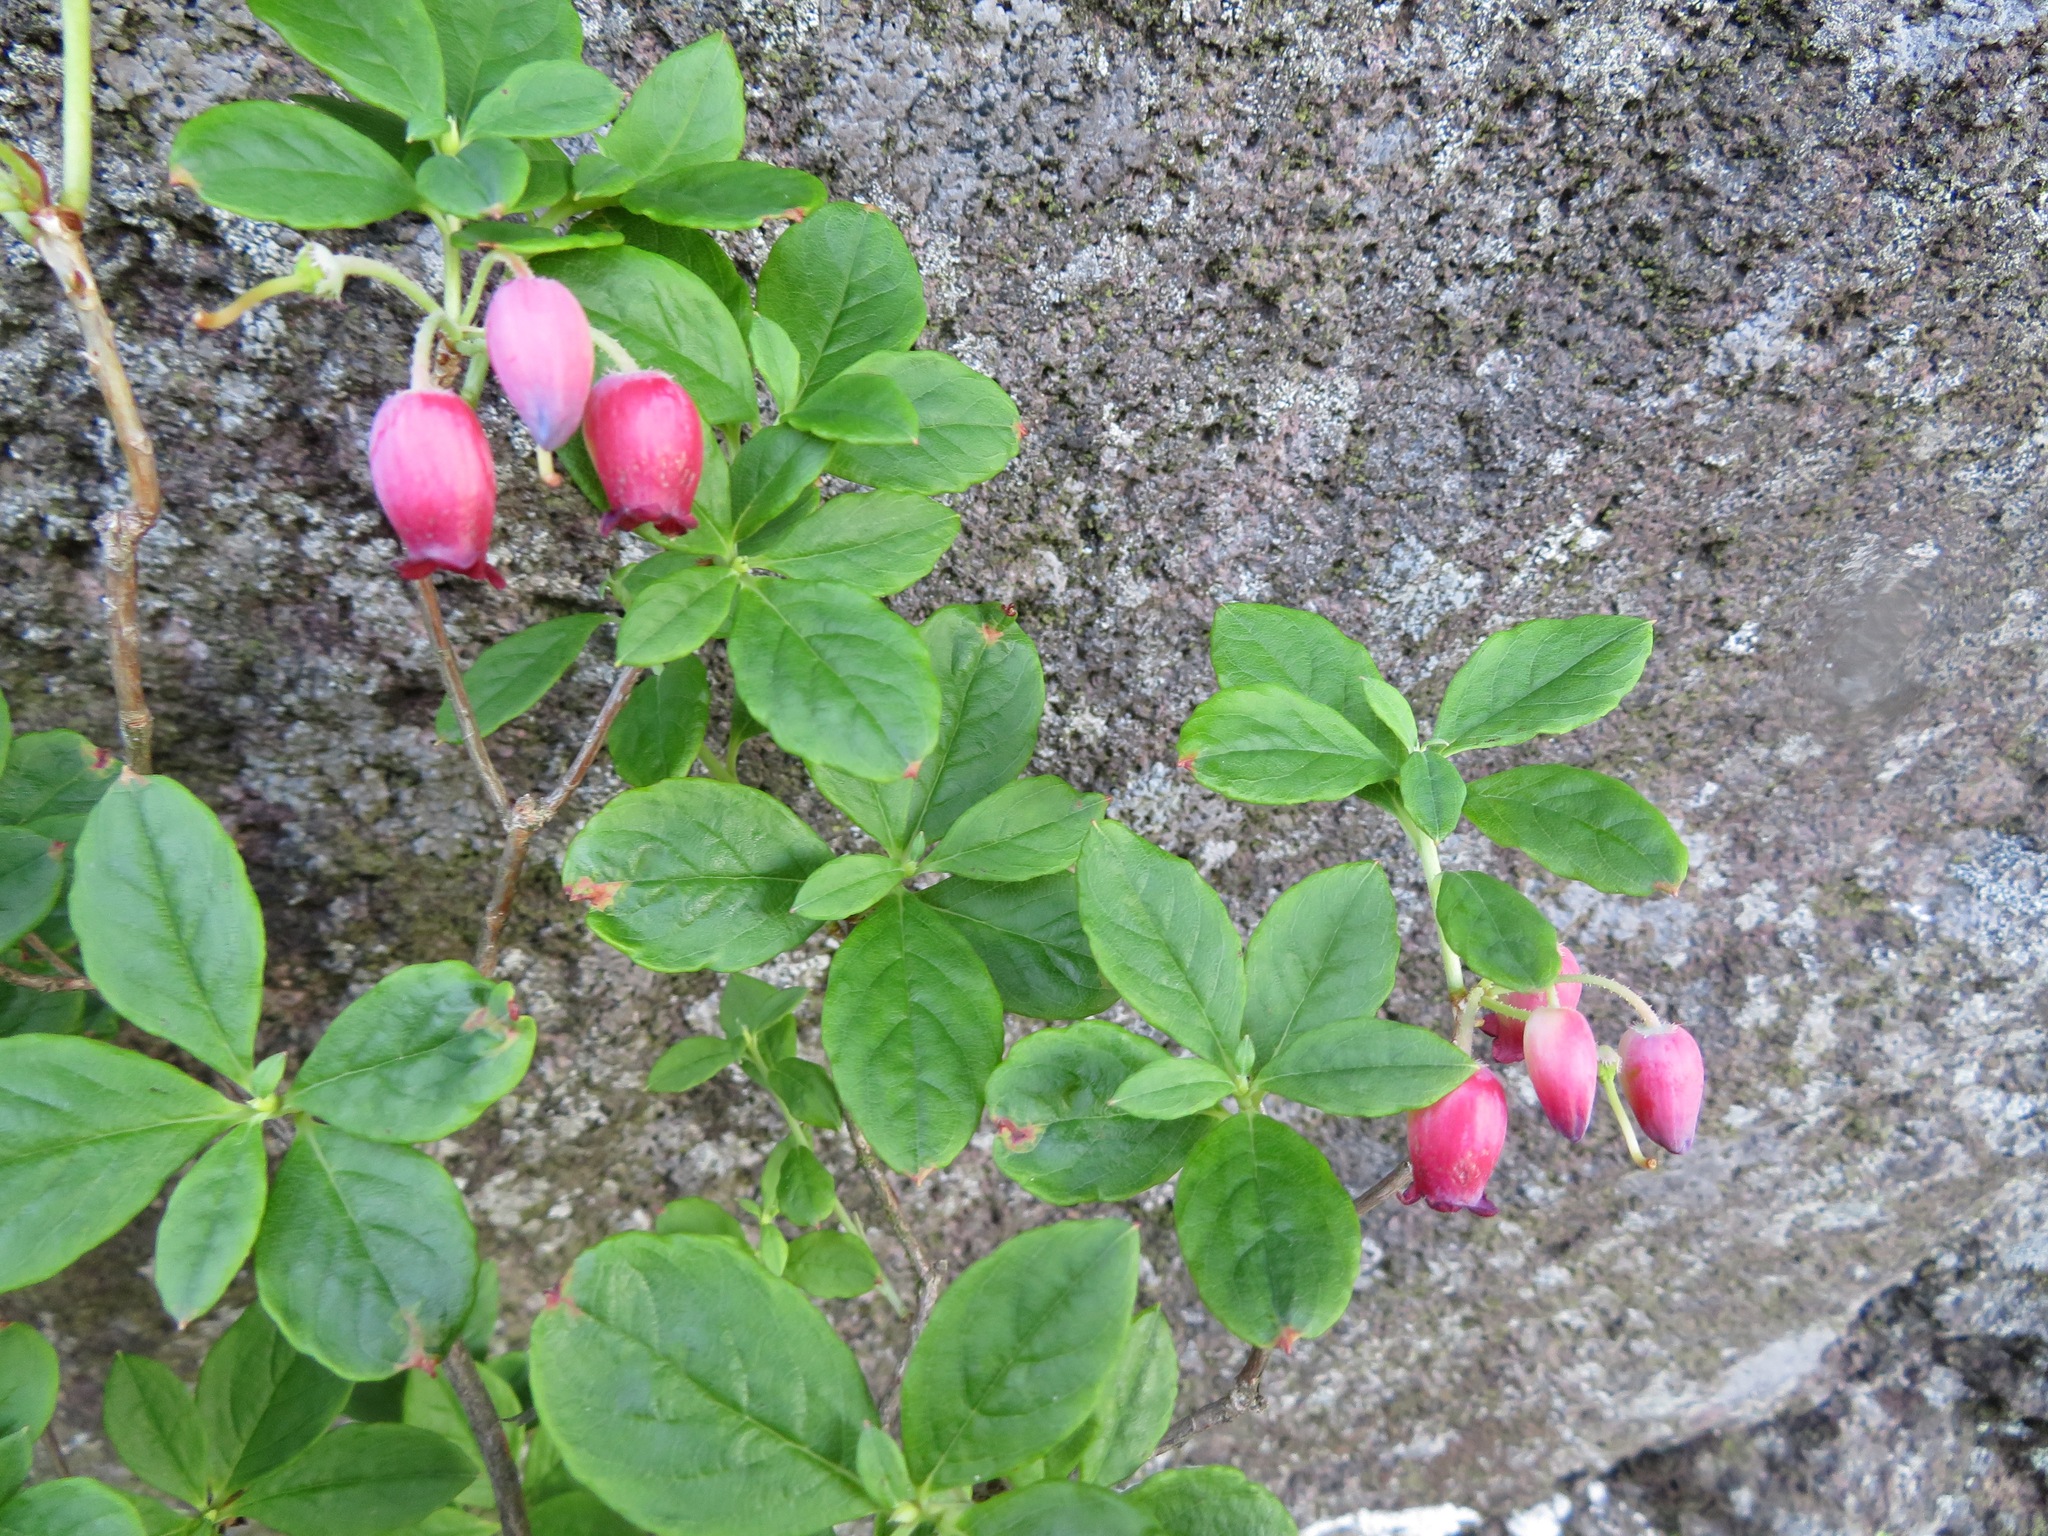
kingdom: Plantae
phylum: Tracheophyta
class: Magnoliopsida
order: Ericales
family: Ericaceae
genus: Rhododendron
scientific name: Rhododendron multiflorum
